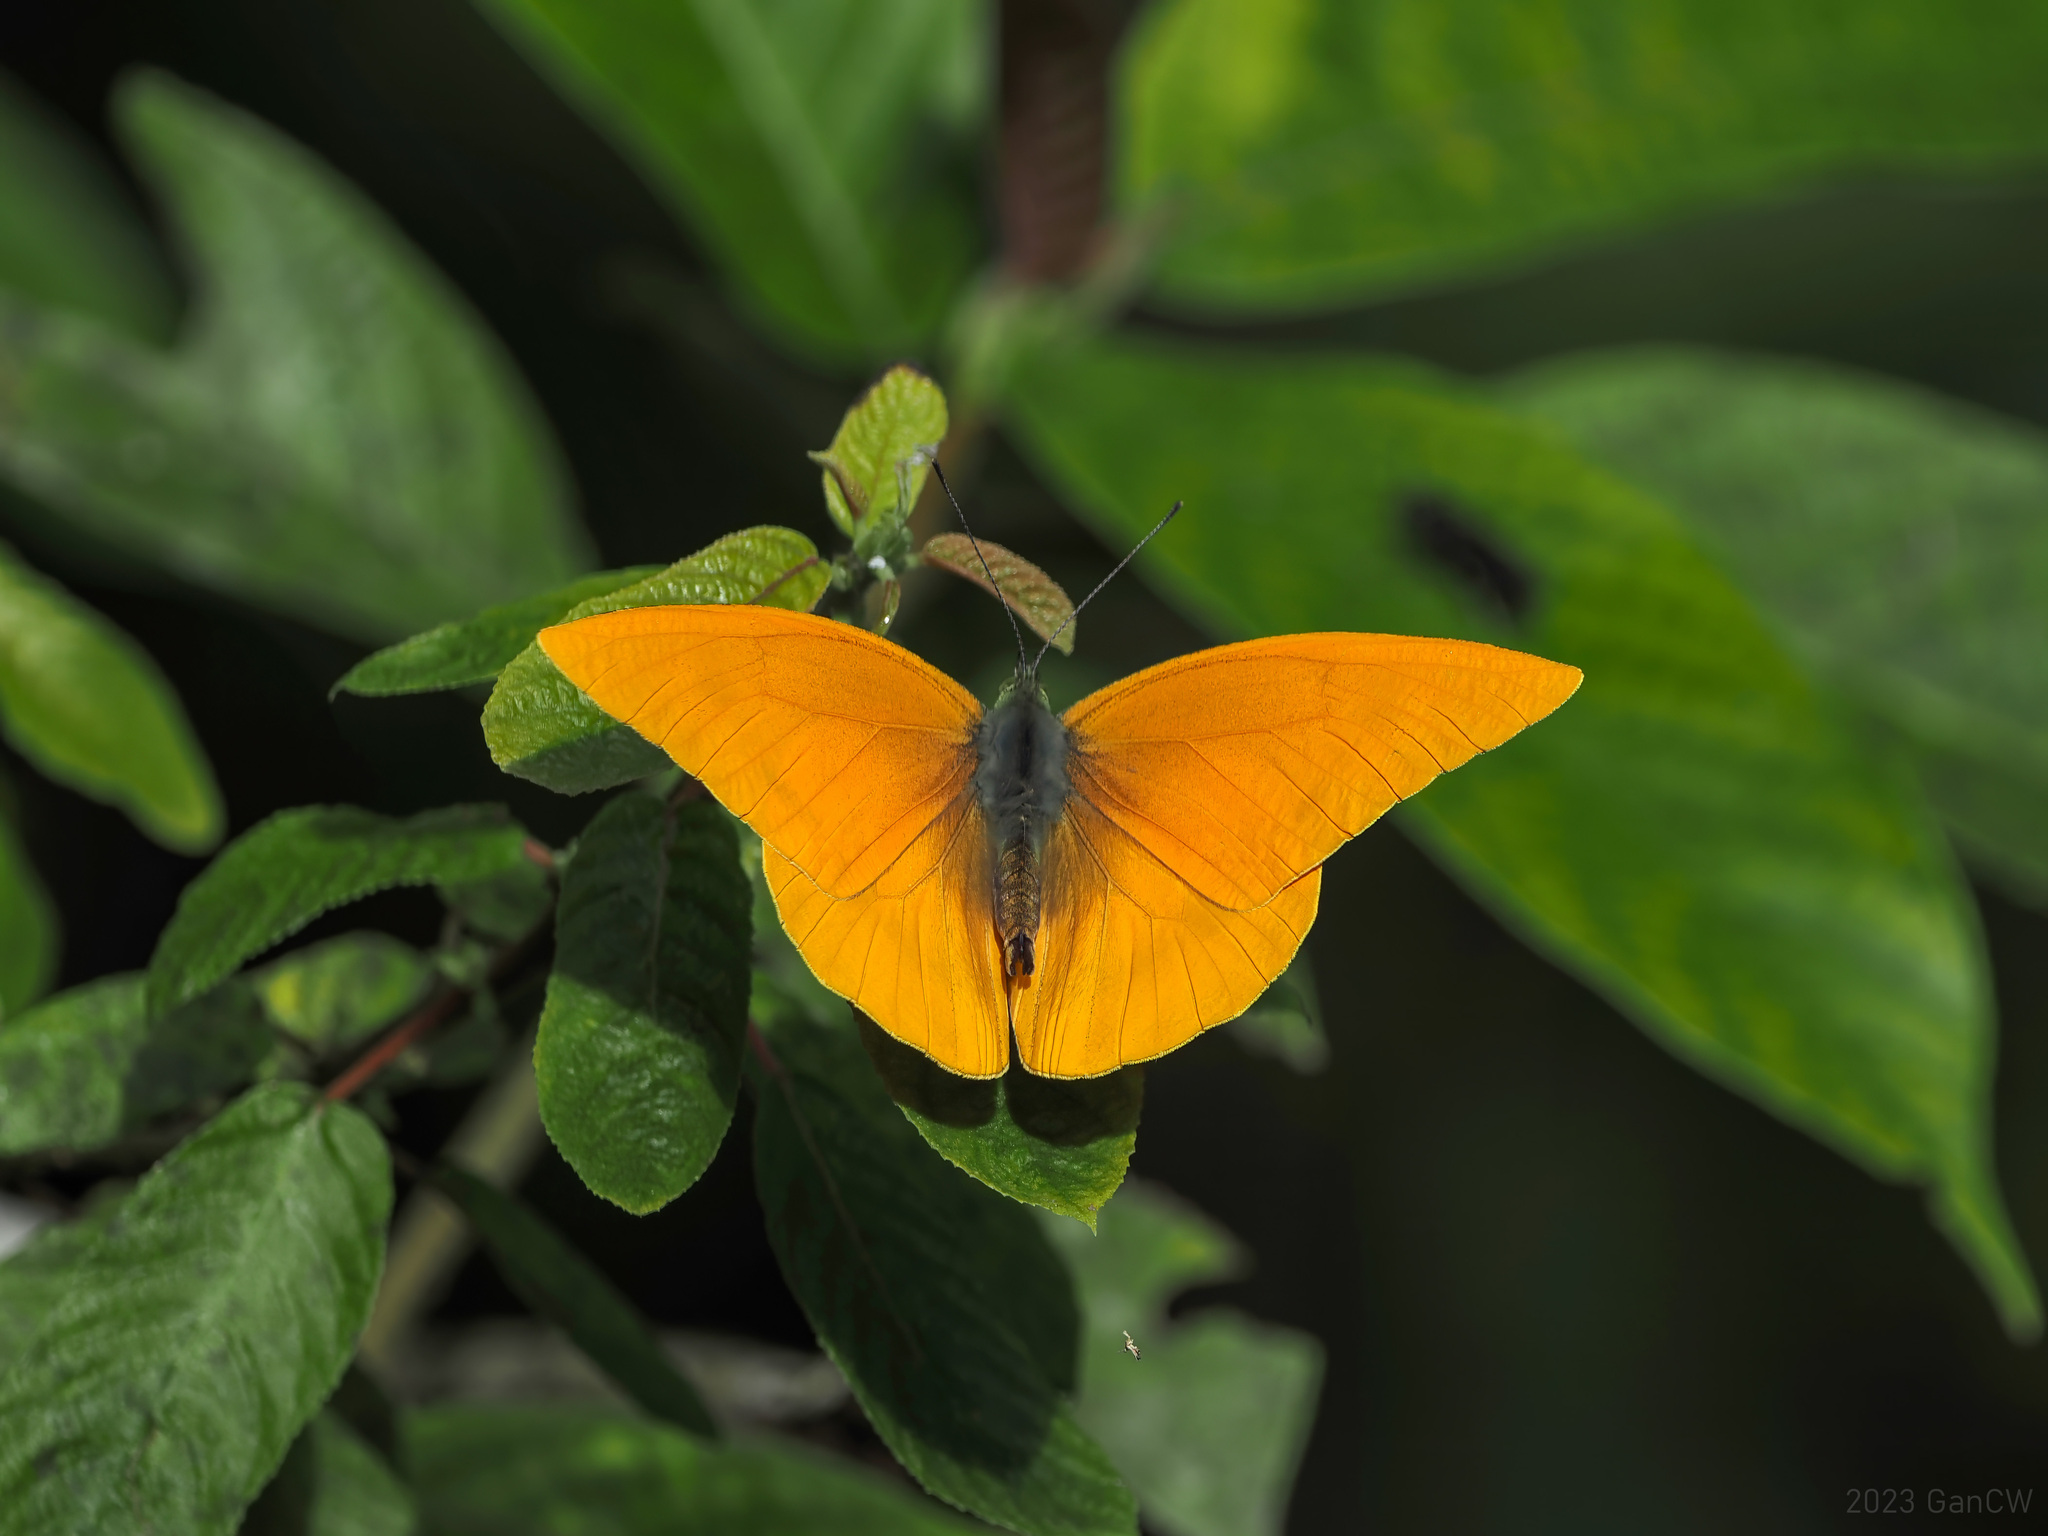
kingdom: Animalia
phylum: Arthropoda
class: Insecta
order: Lepidoptera
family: Pieridae
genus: Appias
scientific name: Appias zarinda
